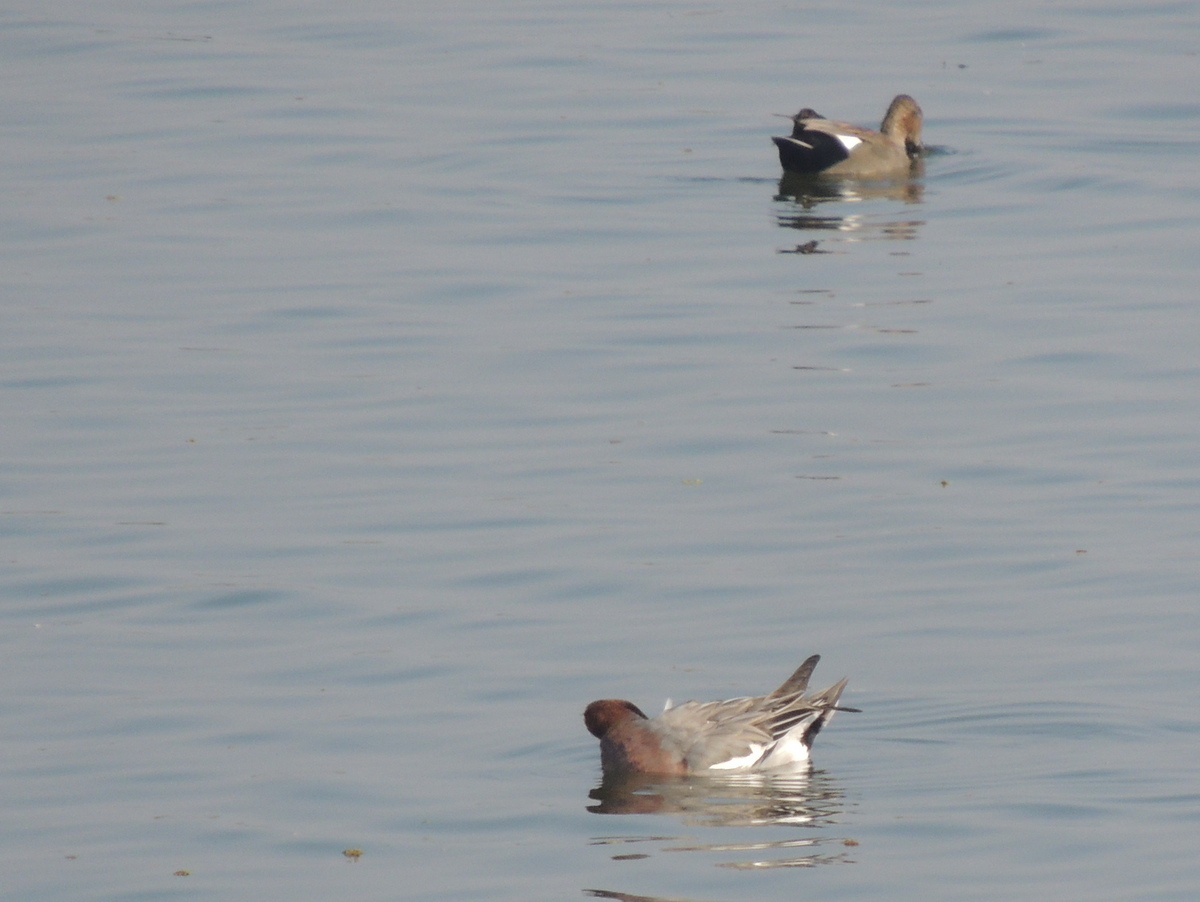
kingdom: Animalia
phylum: Chordata
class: Aves
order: Anseriformes
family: Anatidae
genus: Mareca
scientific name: Mareca penelope
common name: Eurasian wigeon
